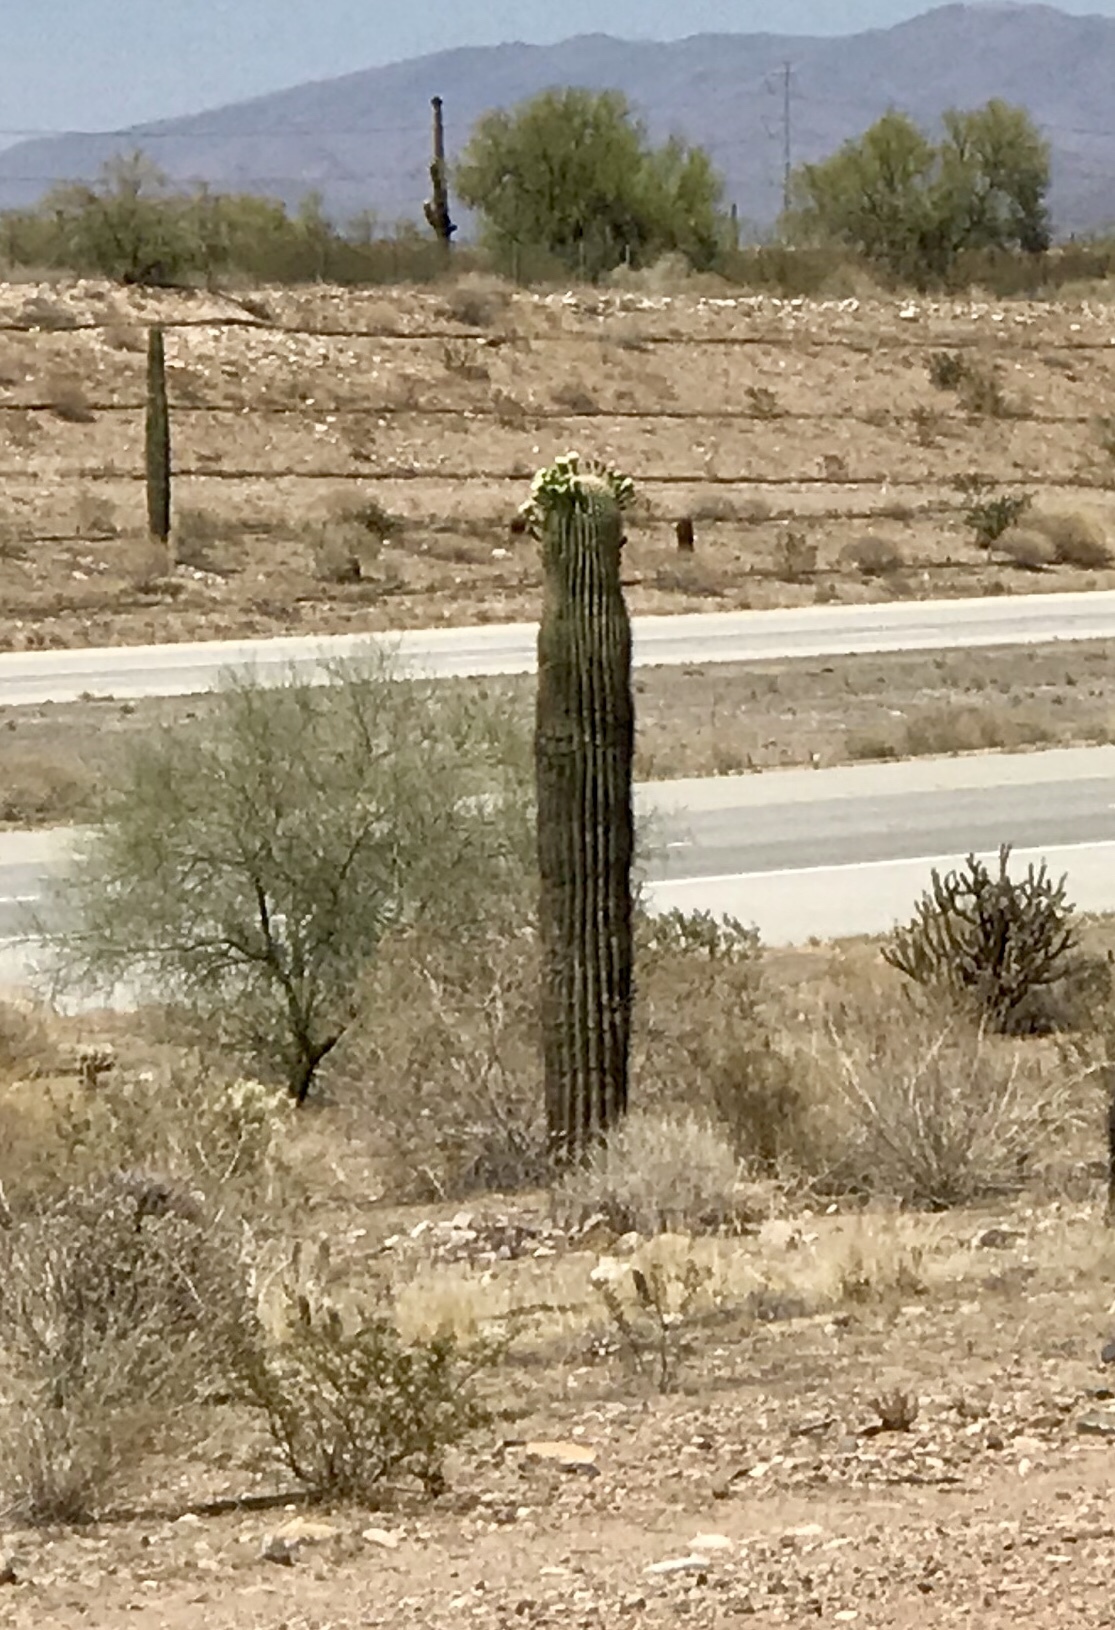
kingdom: Plantae
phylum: Tracheophyta
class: Magnoliopsida
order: Caryophyllales
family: Cactaceae
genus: Carnegiea
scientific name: Carnegiea gigantea
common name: Saguaro
